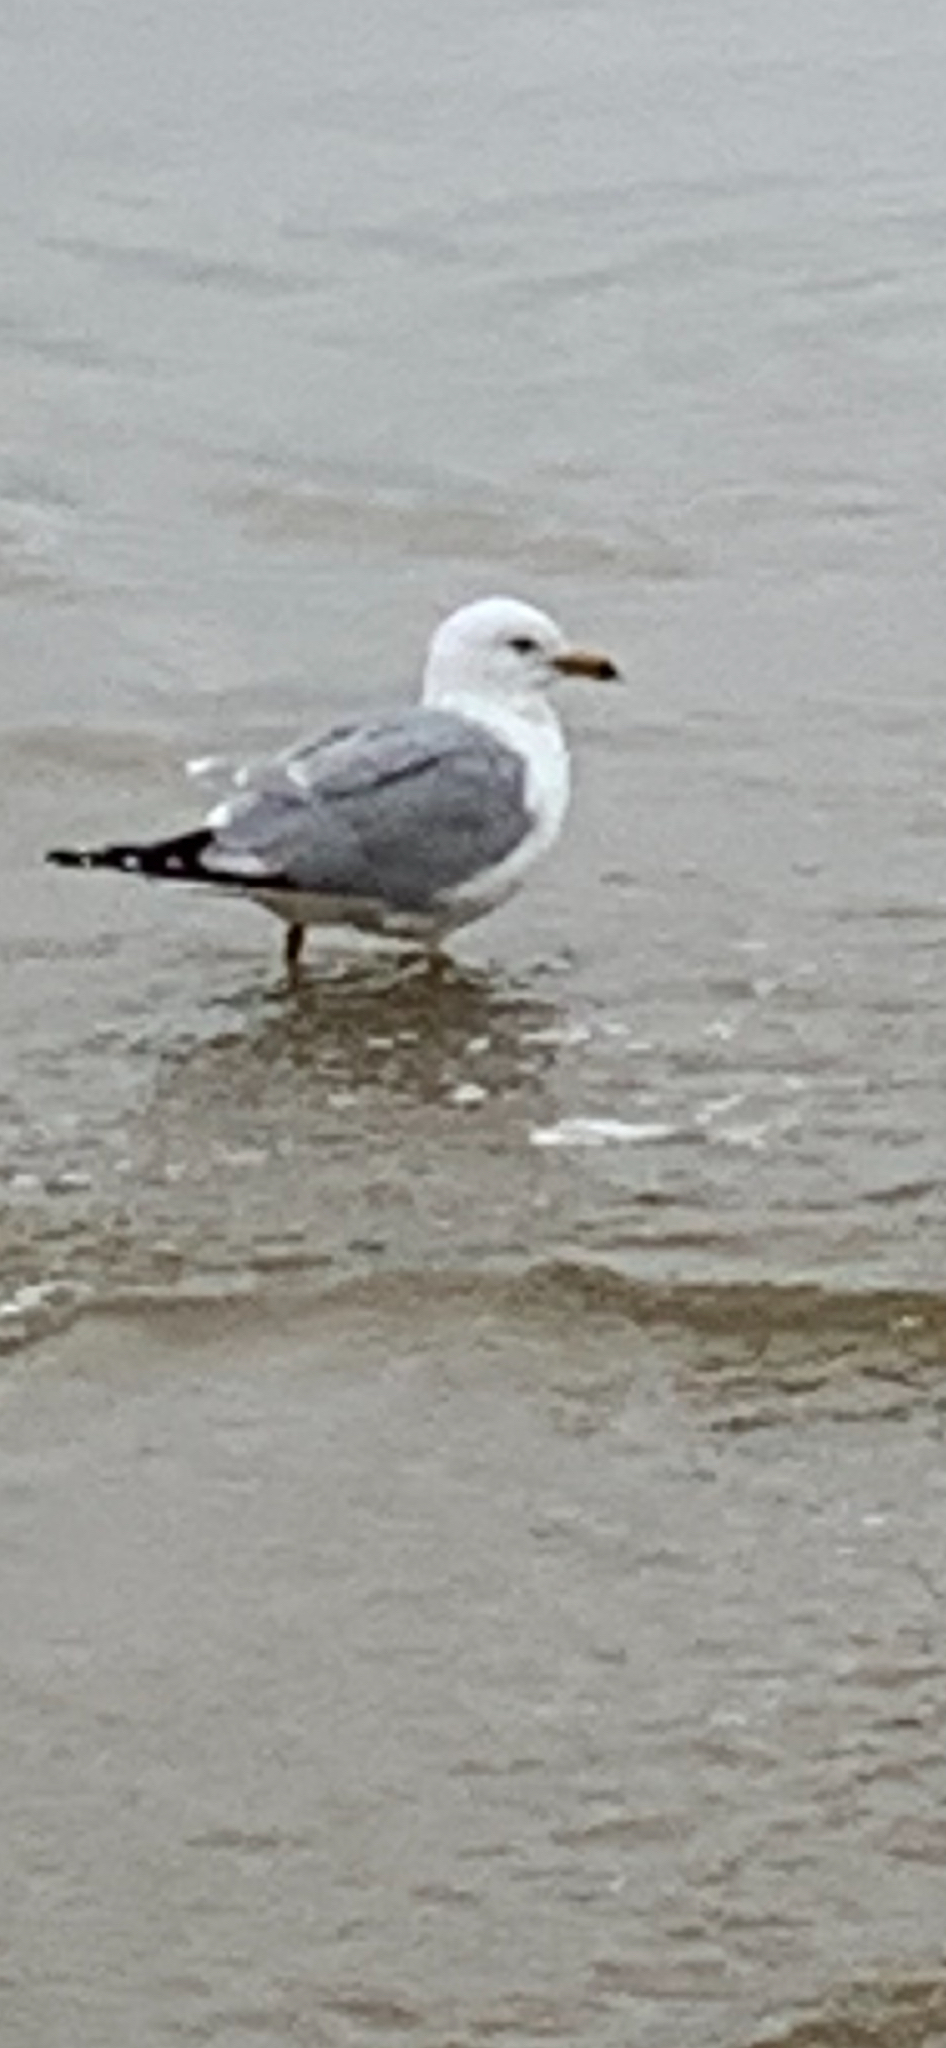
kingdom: Animalia
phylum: Chordata
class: Aves
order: Charadriiformes
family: Laridae
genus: Larus
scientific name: Larus delawarensis
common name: Ring-billed gull
